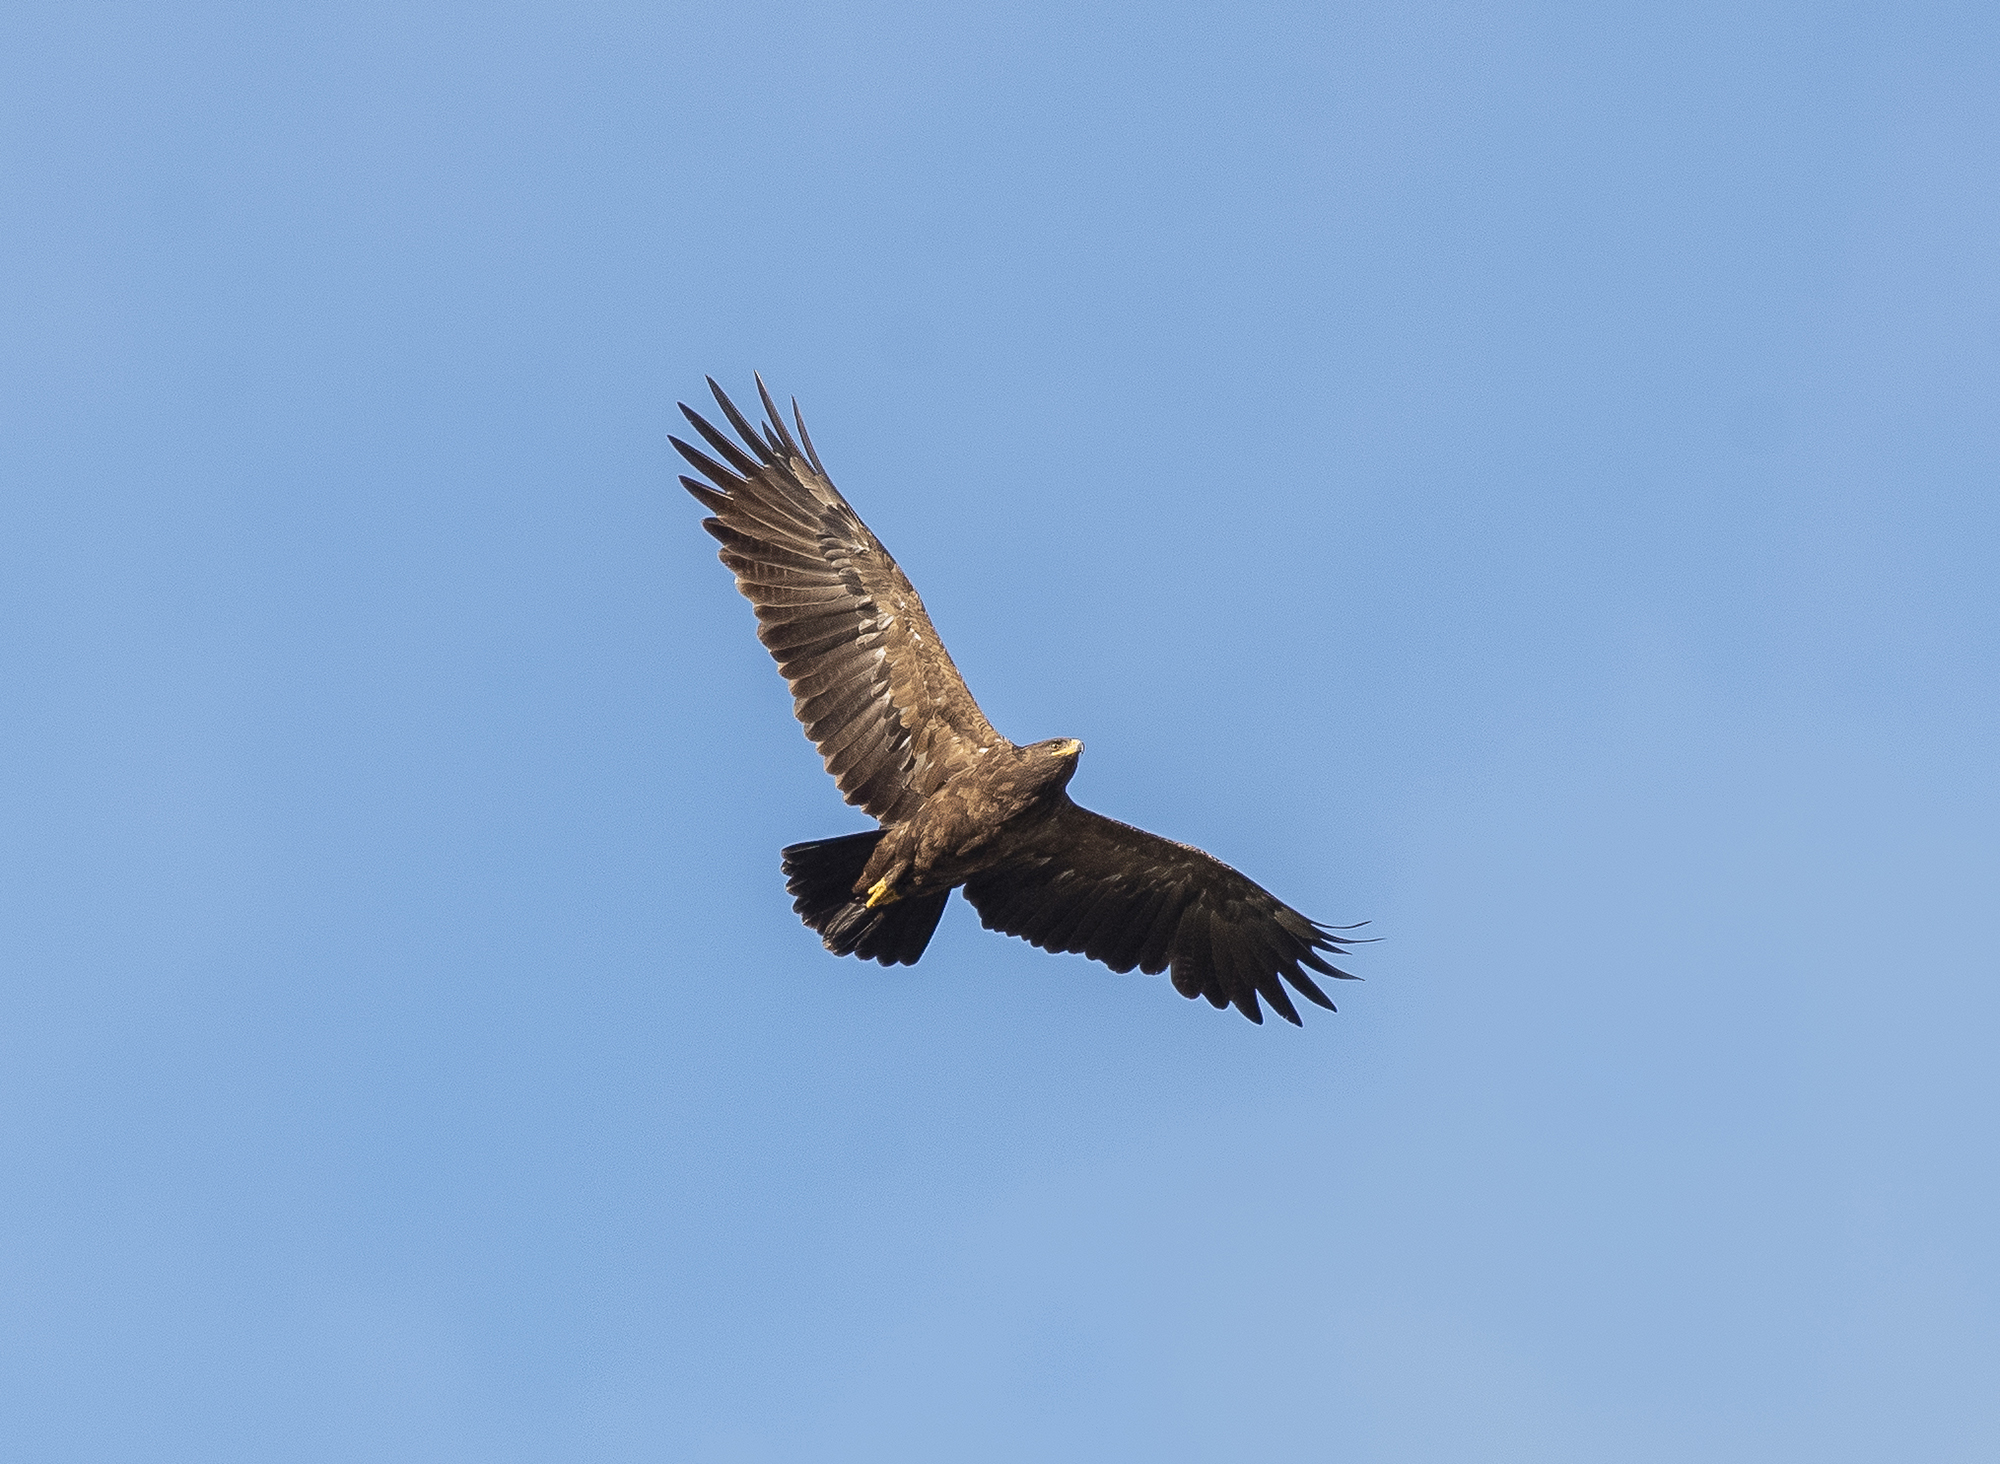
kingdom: Animalia
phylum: Chordata
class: Aves
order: Accipitriformes
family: Accipitridae
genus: Aquila
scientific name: Aquila pomarina
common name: Lesser spotted eagle
